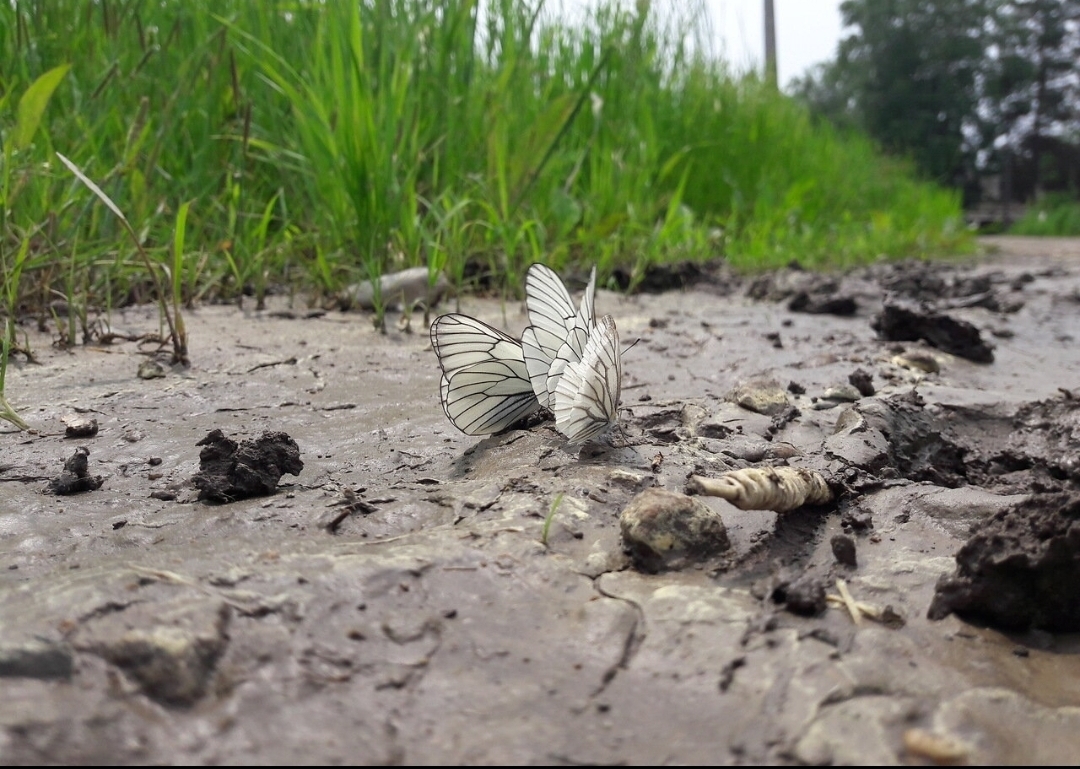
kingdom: Animalia
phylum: Arthropoda
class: Insecta
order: Lepidoptera
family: Pieridae
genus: Aporia
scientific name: Aporia crataegi
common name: Black-veined white
